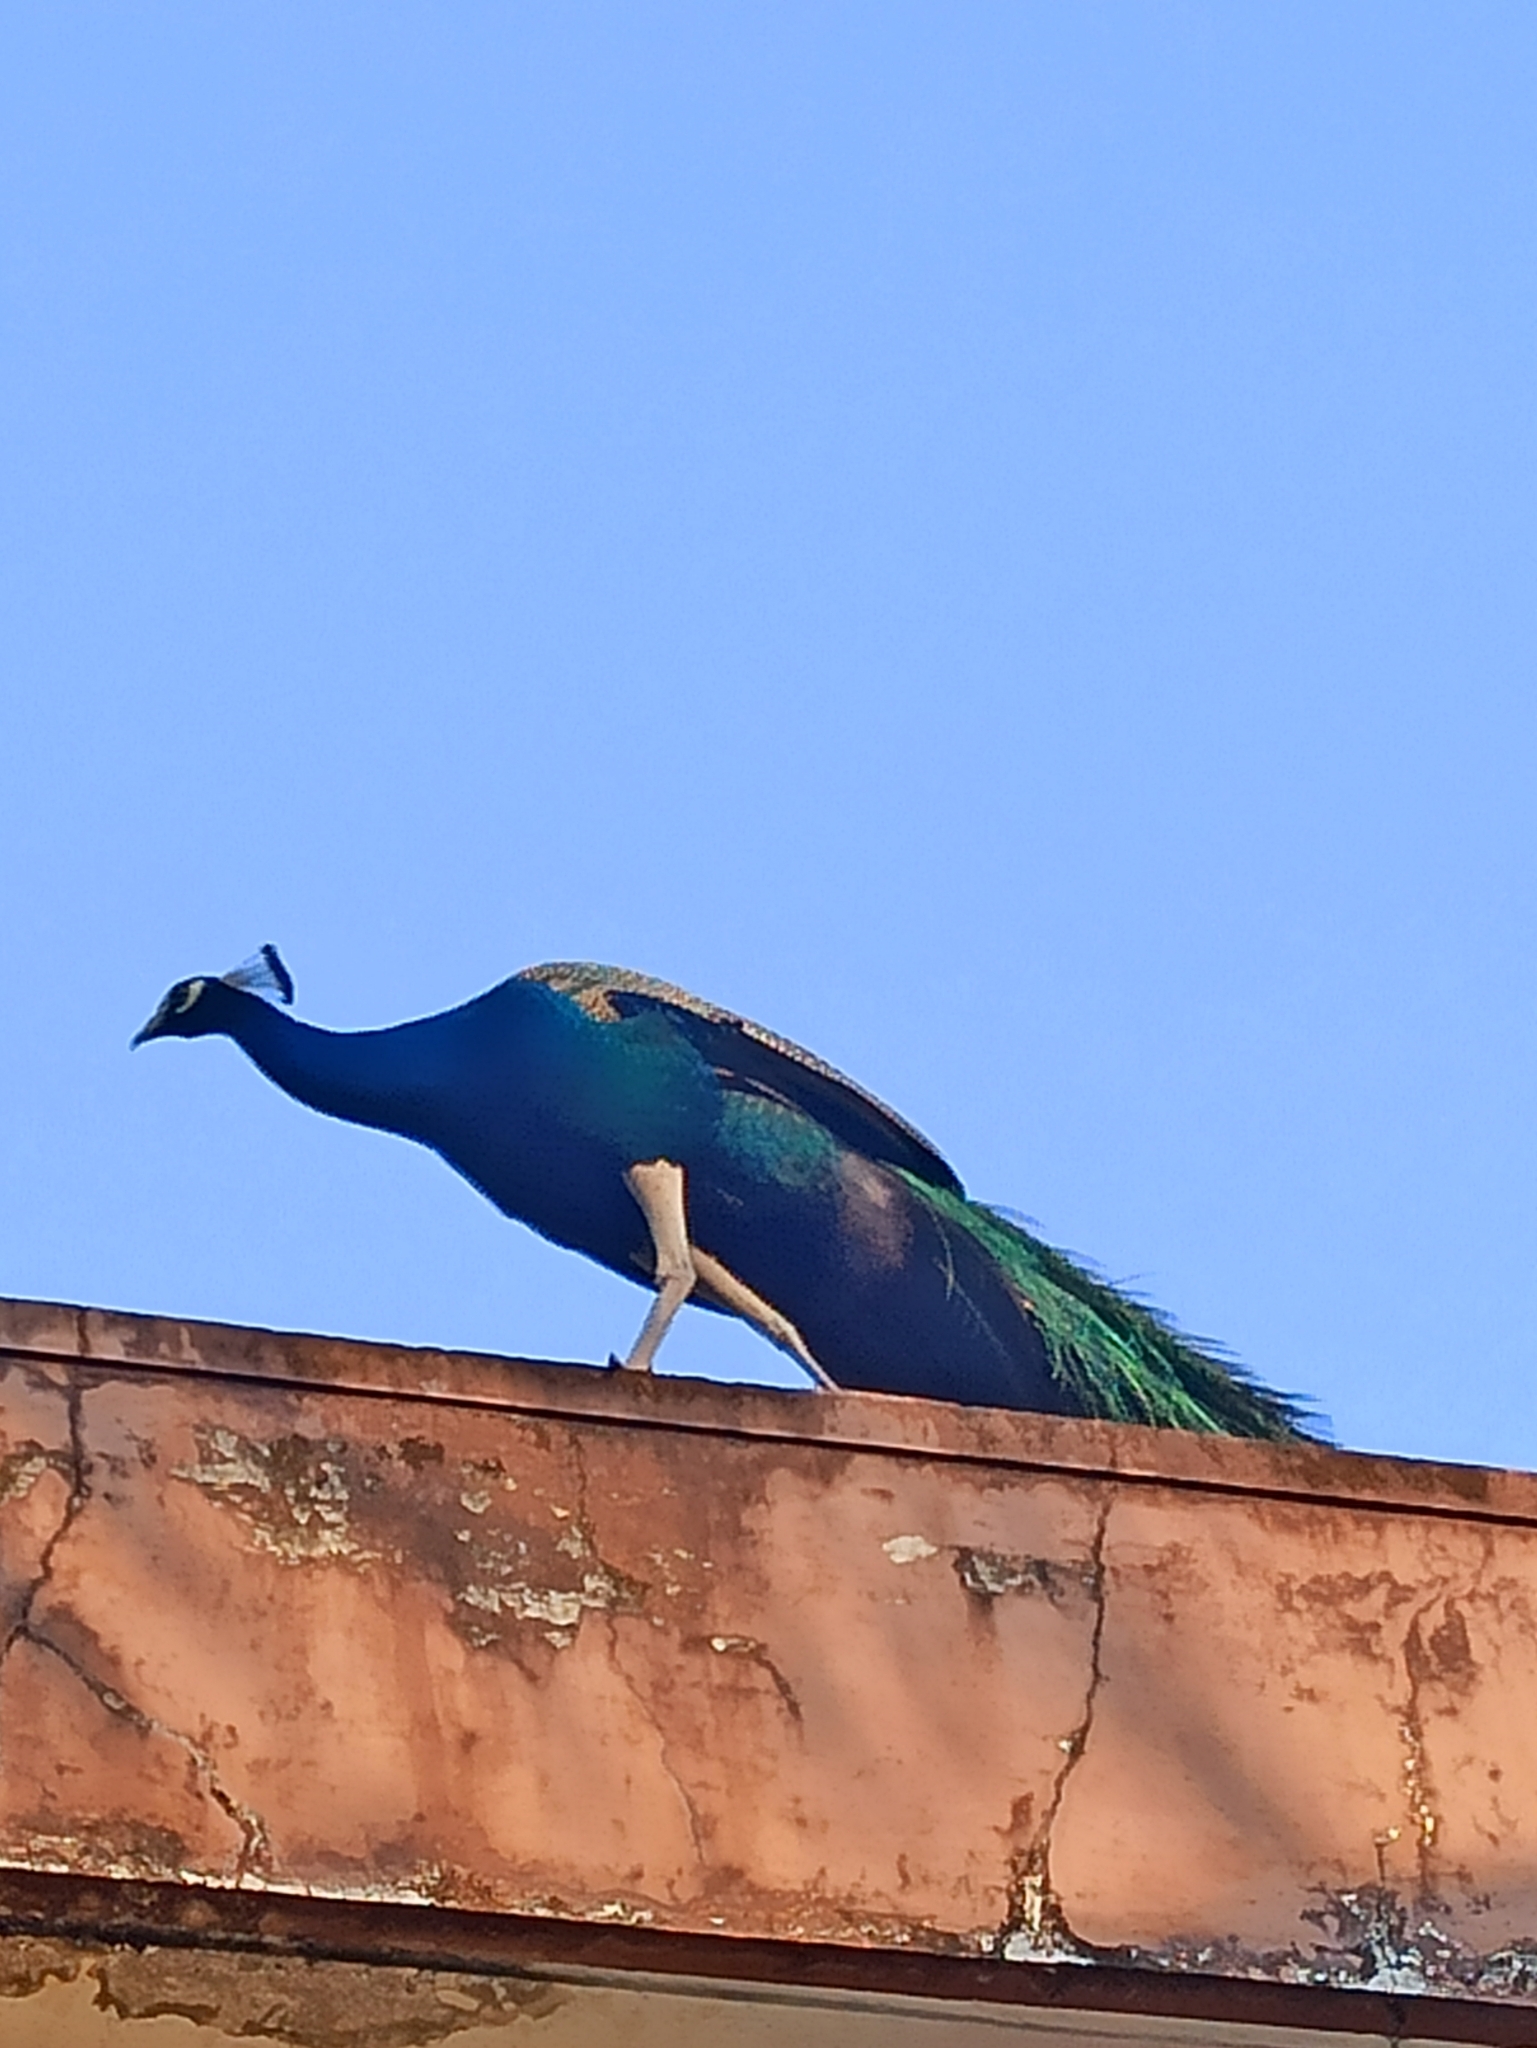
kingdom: Animalia
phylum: Chordata
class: Aves
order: Galliformes
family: Phasianidae
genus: Pavo
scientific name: Pavo cristatus
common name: Indian peafowl
